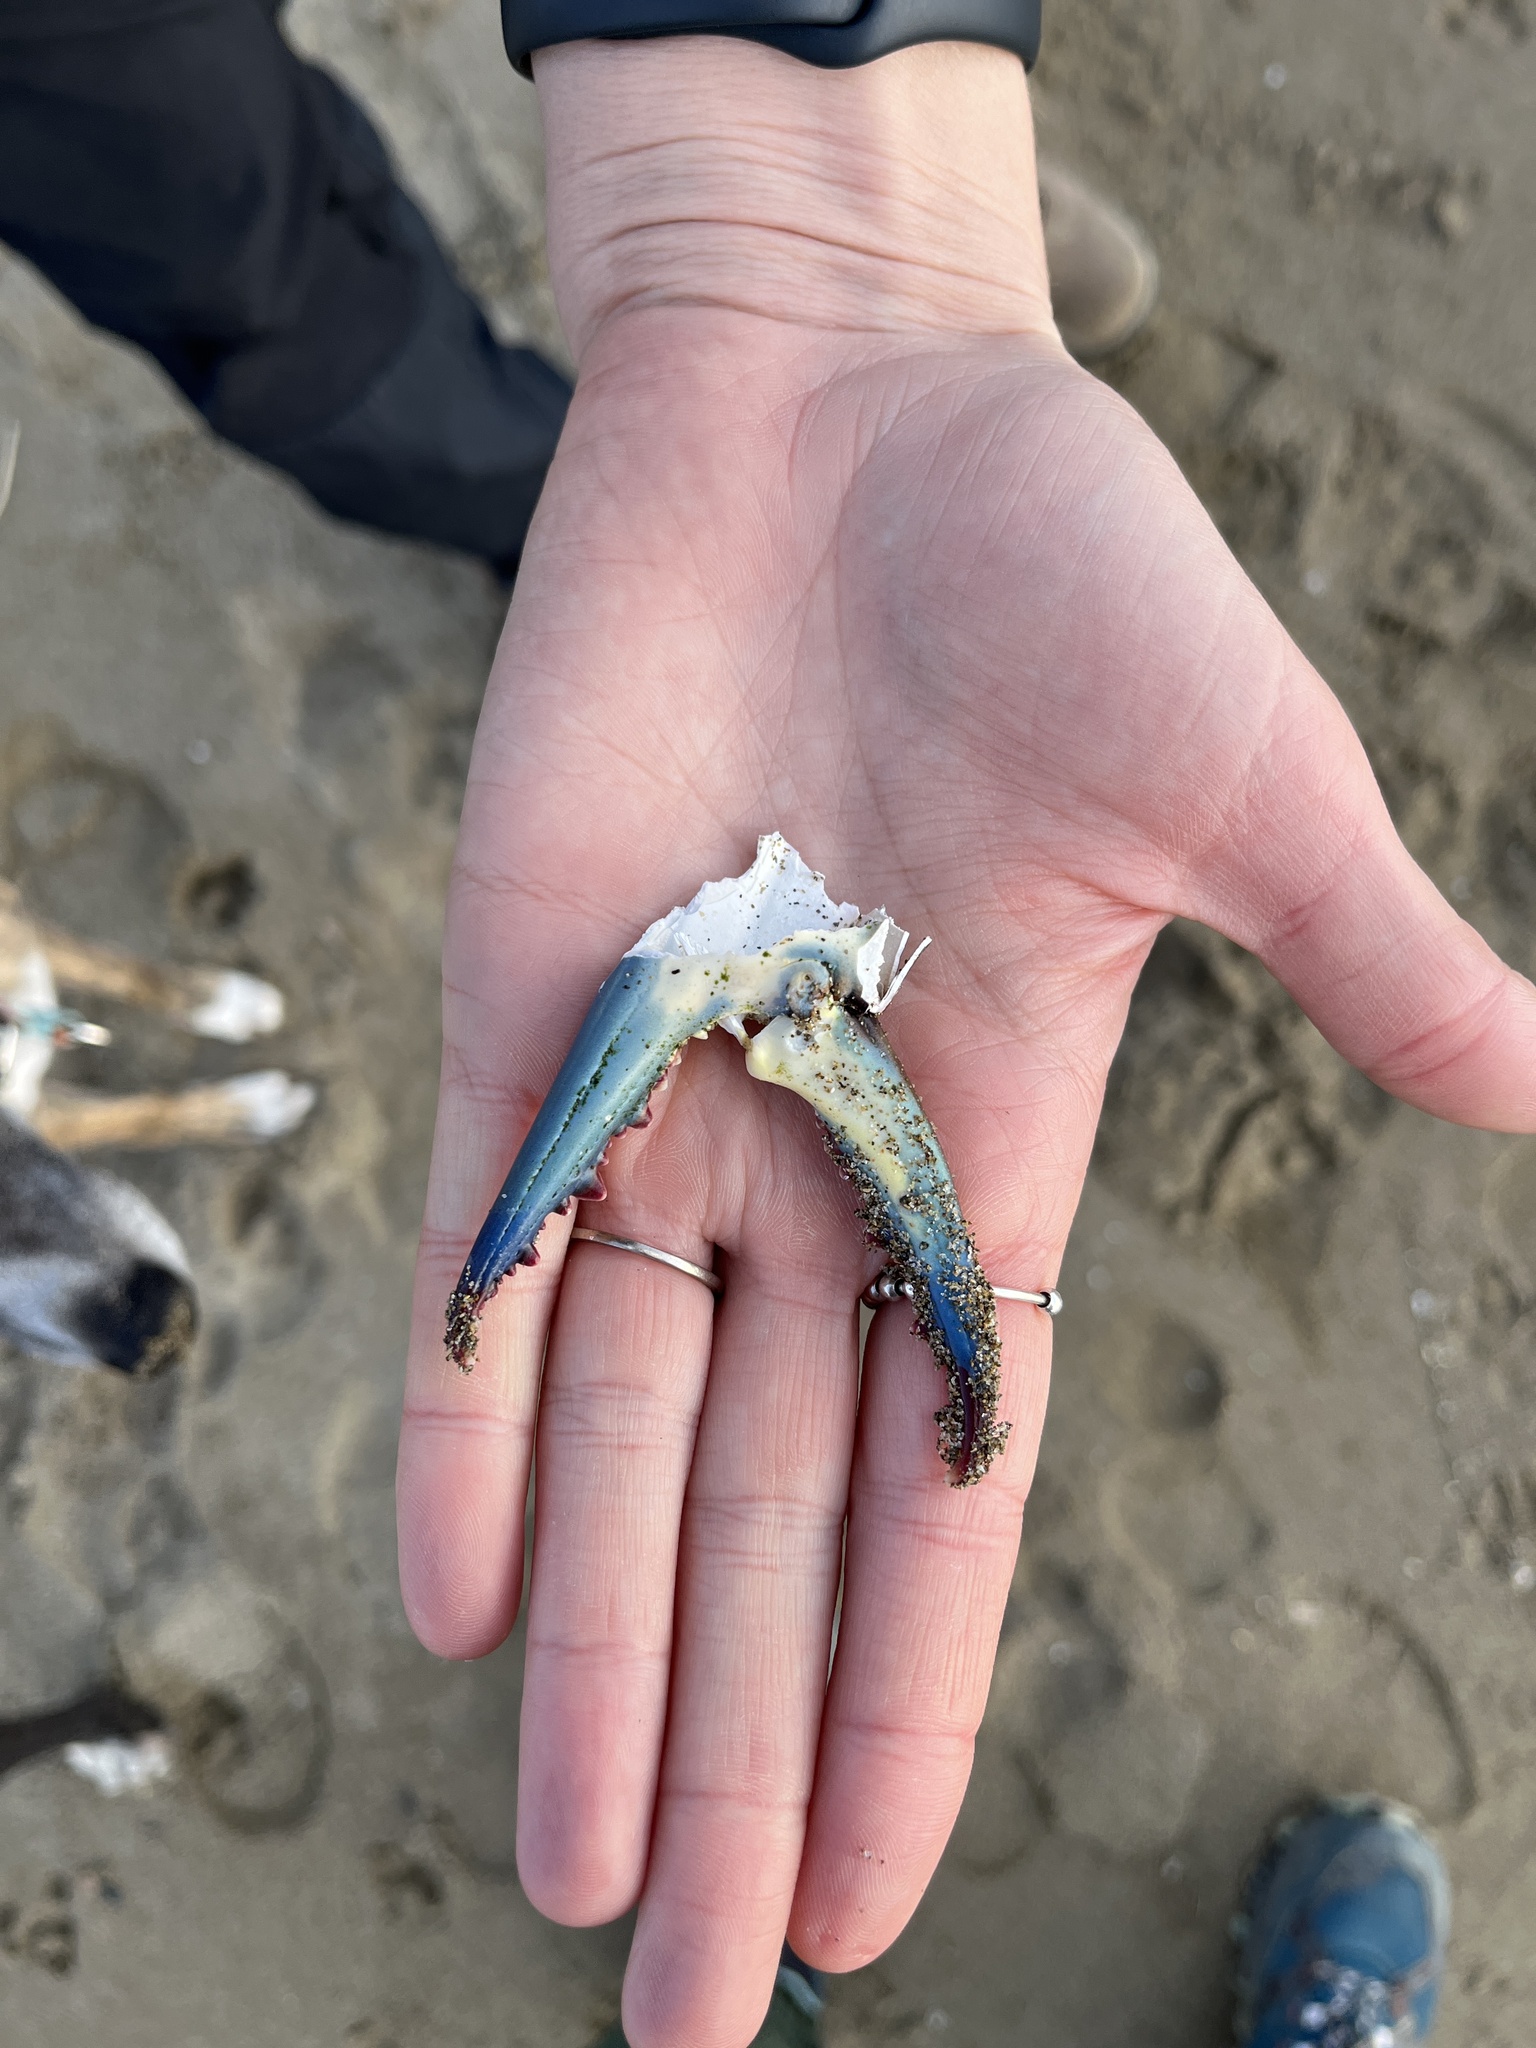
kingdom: Animalia
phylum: Arthropoda
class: Malacostraca
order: Decapoda
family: Portunidae
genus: Callinectes
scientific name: Callinectes sapidus
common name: Blue crab
